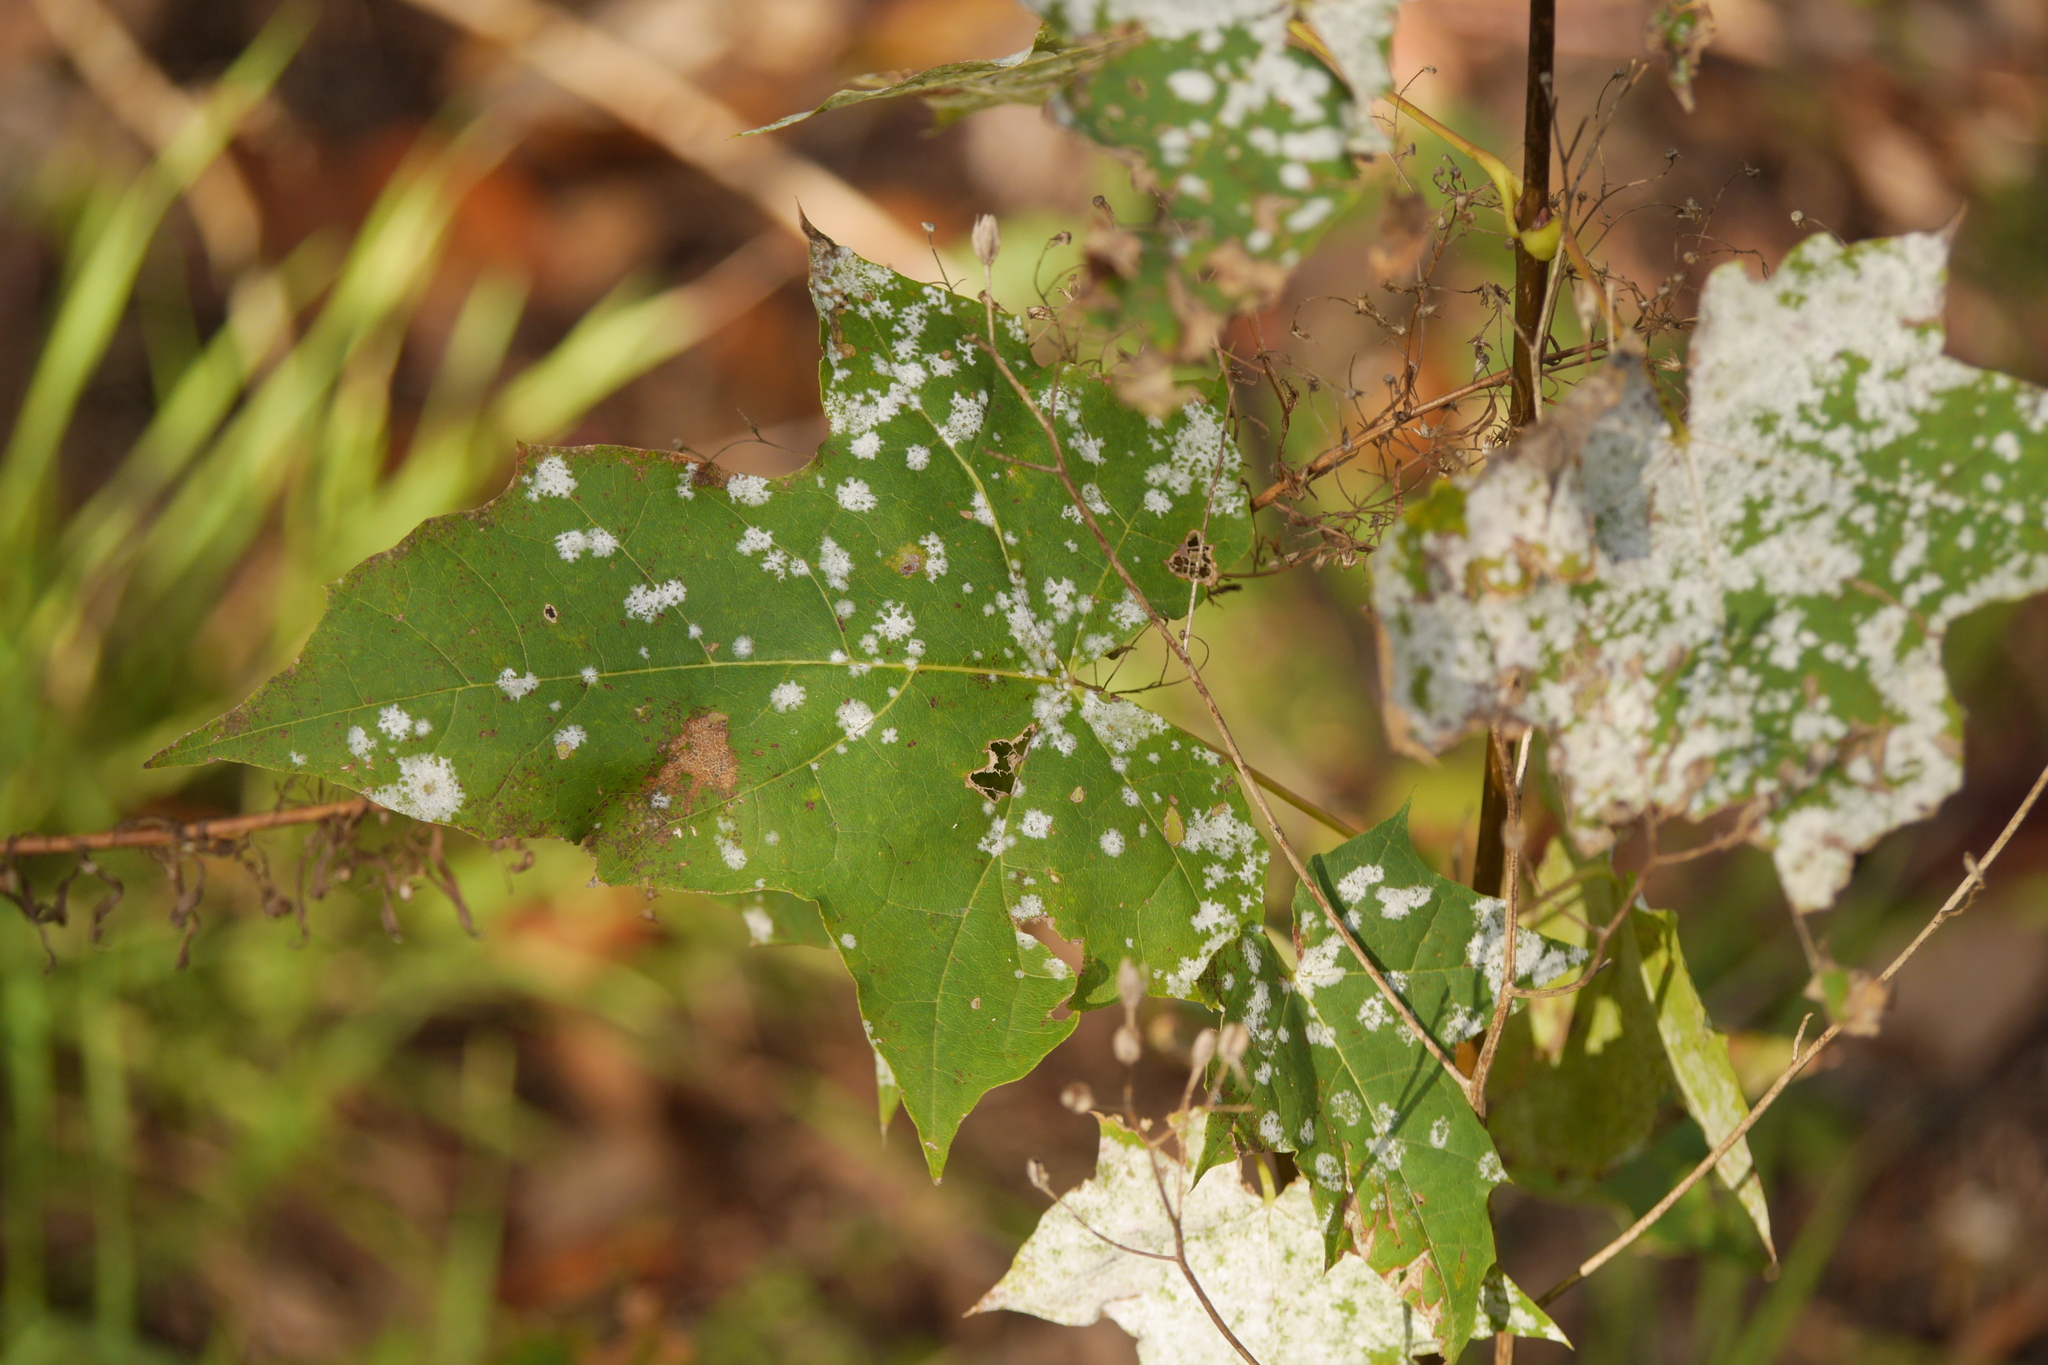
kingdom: Fungi
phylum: Ascomycota
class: Leotiomycetes
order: Helotiales
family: Erysiphaceae
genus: Sawadaea
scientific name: Sawadaea tulasnei
